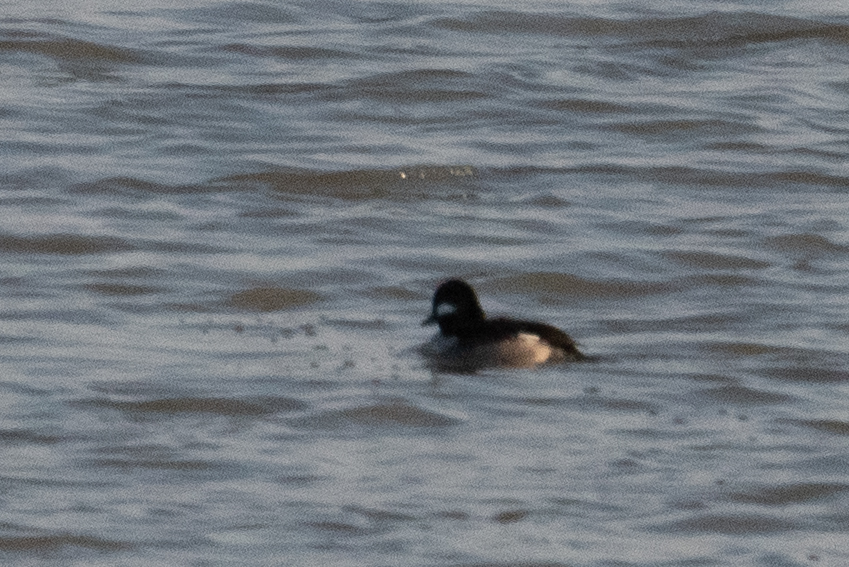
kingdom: Animalia
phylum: Chordata
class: Aves
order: Anseriformes
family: Anatidae
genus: Bucephala
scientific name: Bucephala albeola
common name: Bufflehead
